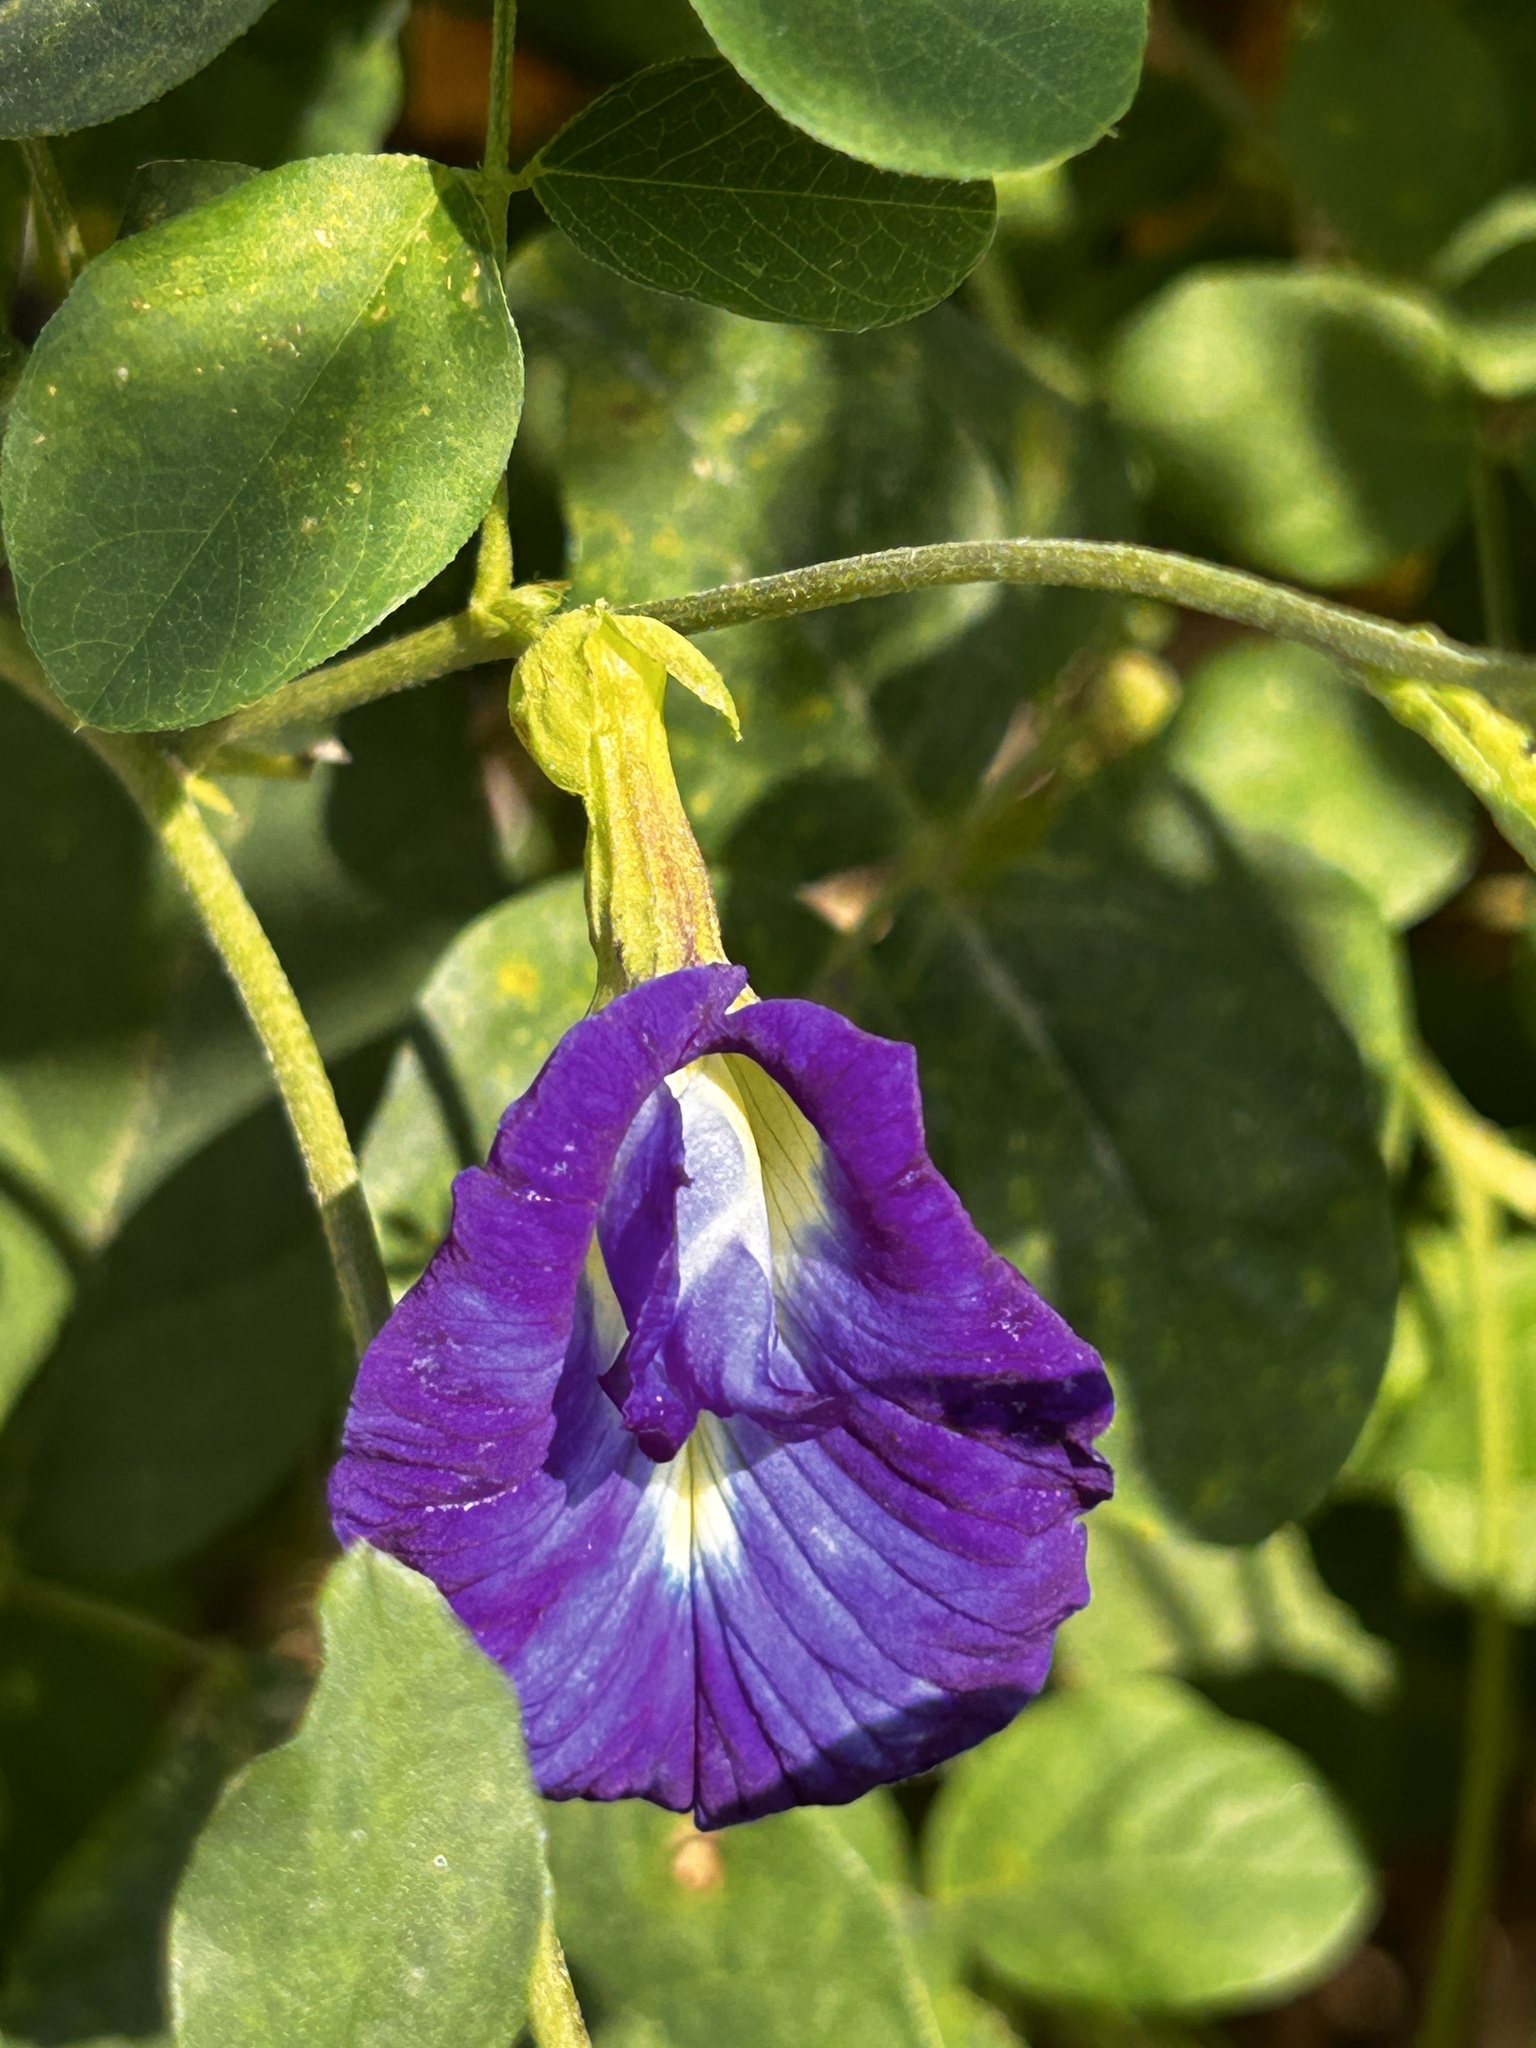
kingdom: Plantae
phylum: Tracheophyta
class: Magnoliopsida
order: Fabales
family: Fabaceae
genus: Clitoria
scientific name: Clitoria ternatea
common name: Asian pigeonwings
